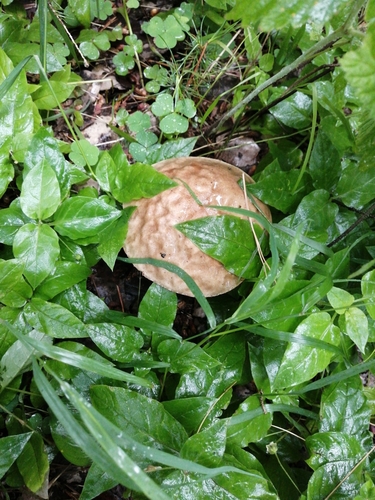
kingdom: Fungi
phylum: Basidiomycota
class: Agaricomycetes
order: Boletales
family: Boletaceae
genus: Leccinum
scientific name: Leccinum
